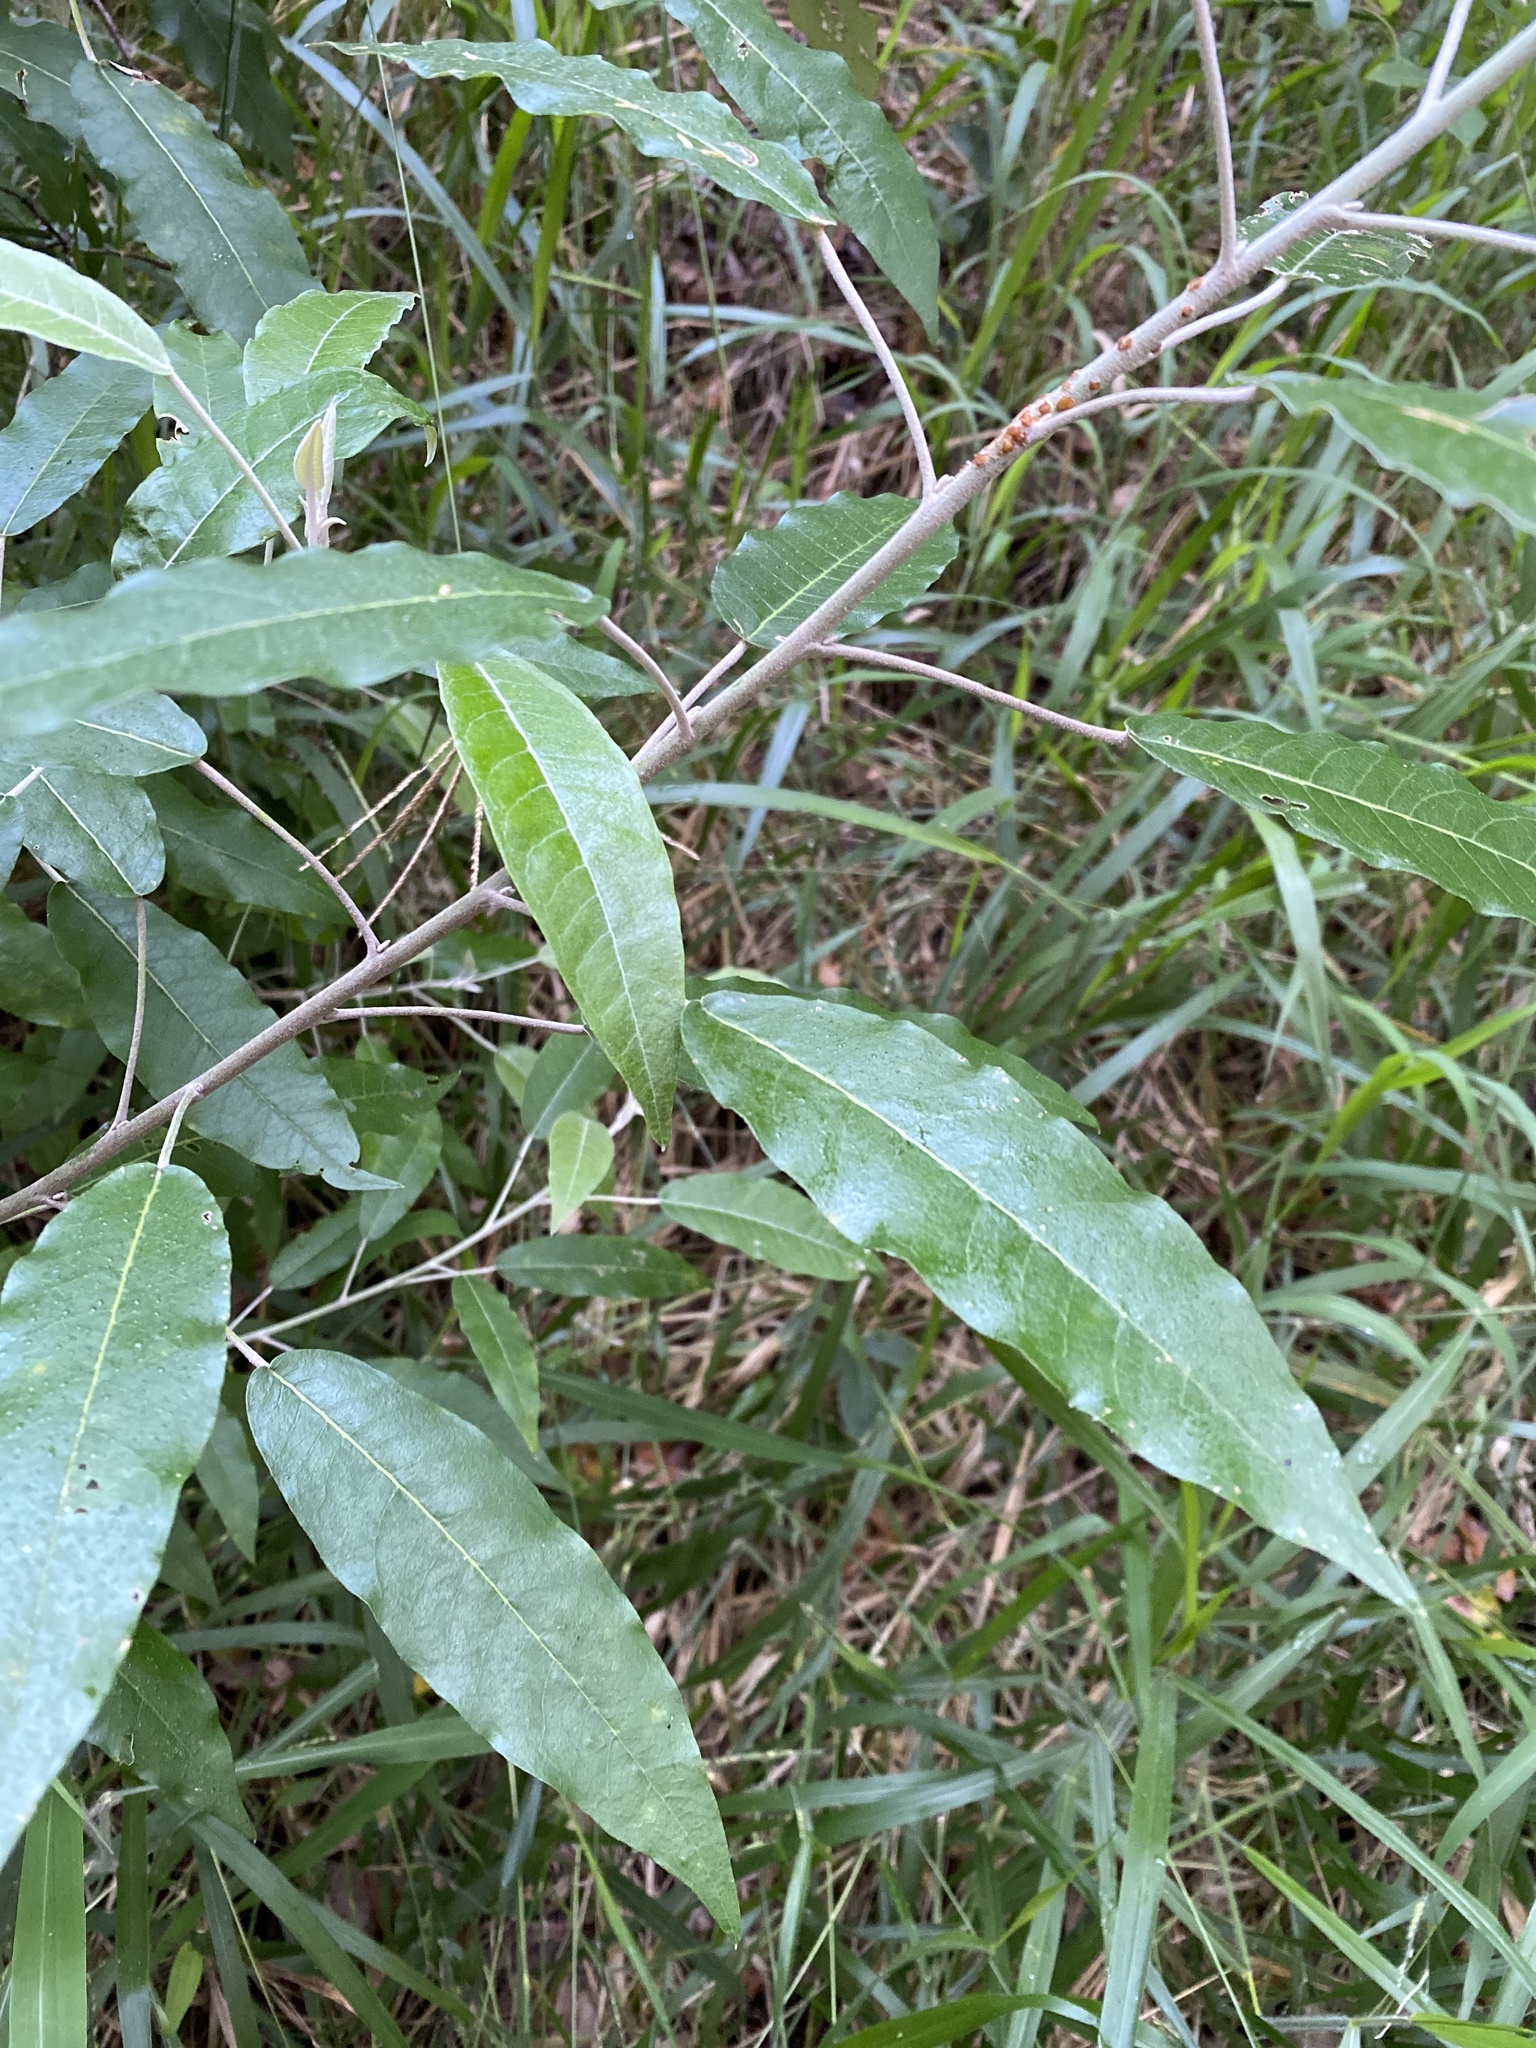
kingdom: Plantae
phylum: Tracheophyta
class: Magnoliopsida
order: Apiales
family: Araliaceae
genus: Astrotricha
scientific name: Astrotricha latifolia
